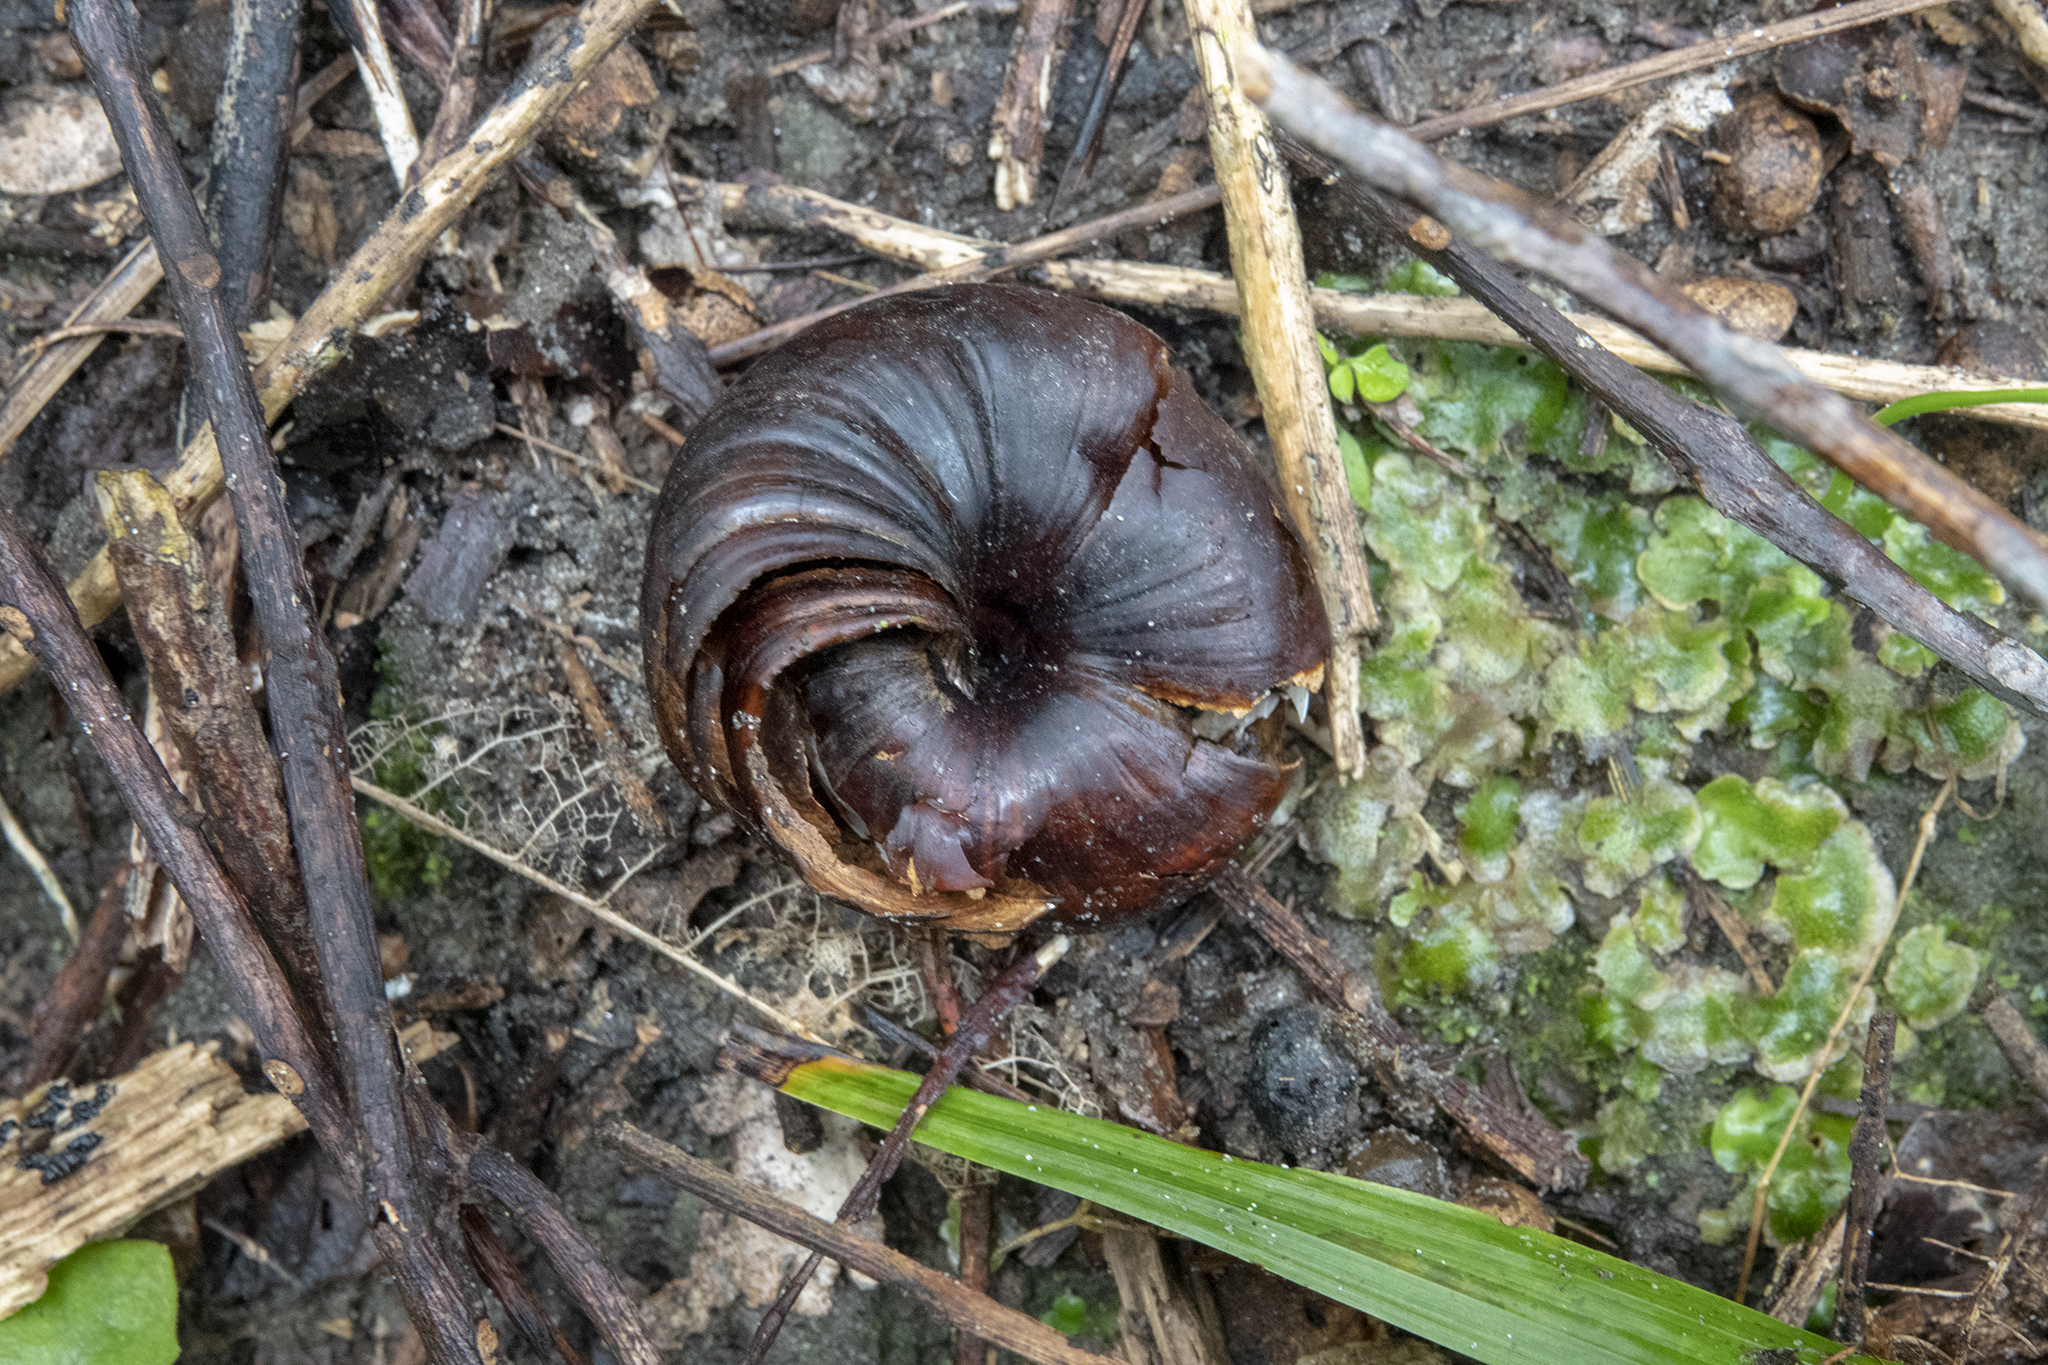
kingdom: Animalia
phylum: Mollusca
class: Gastropoda
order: Stylommatophora
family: Rhytididae
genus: Powelliphanta
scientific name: Powelliphanta gilliesi
